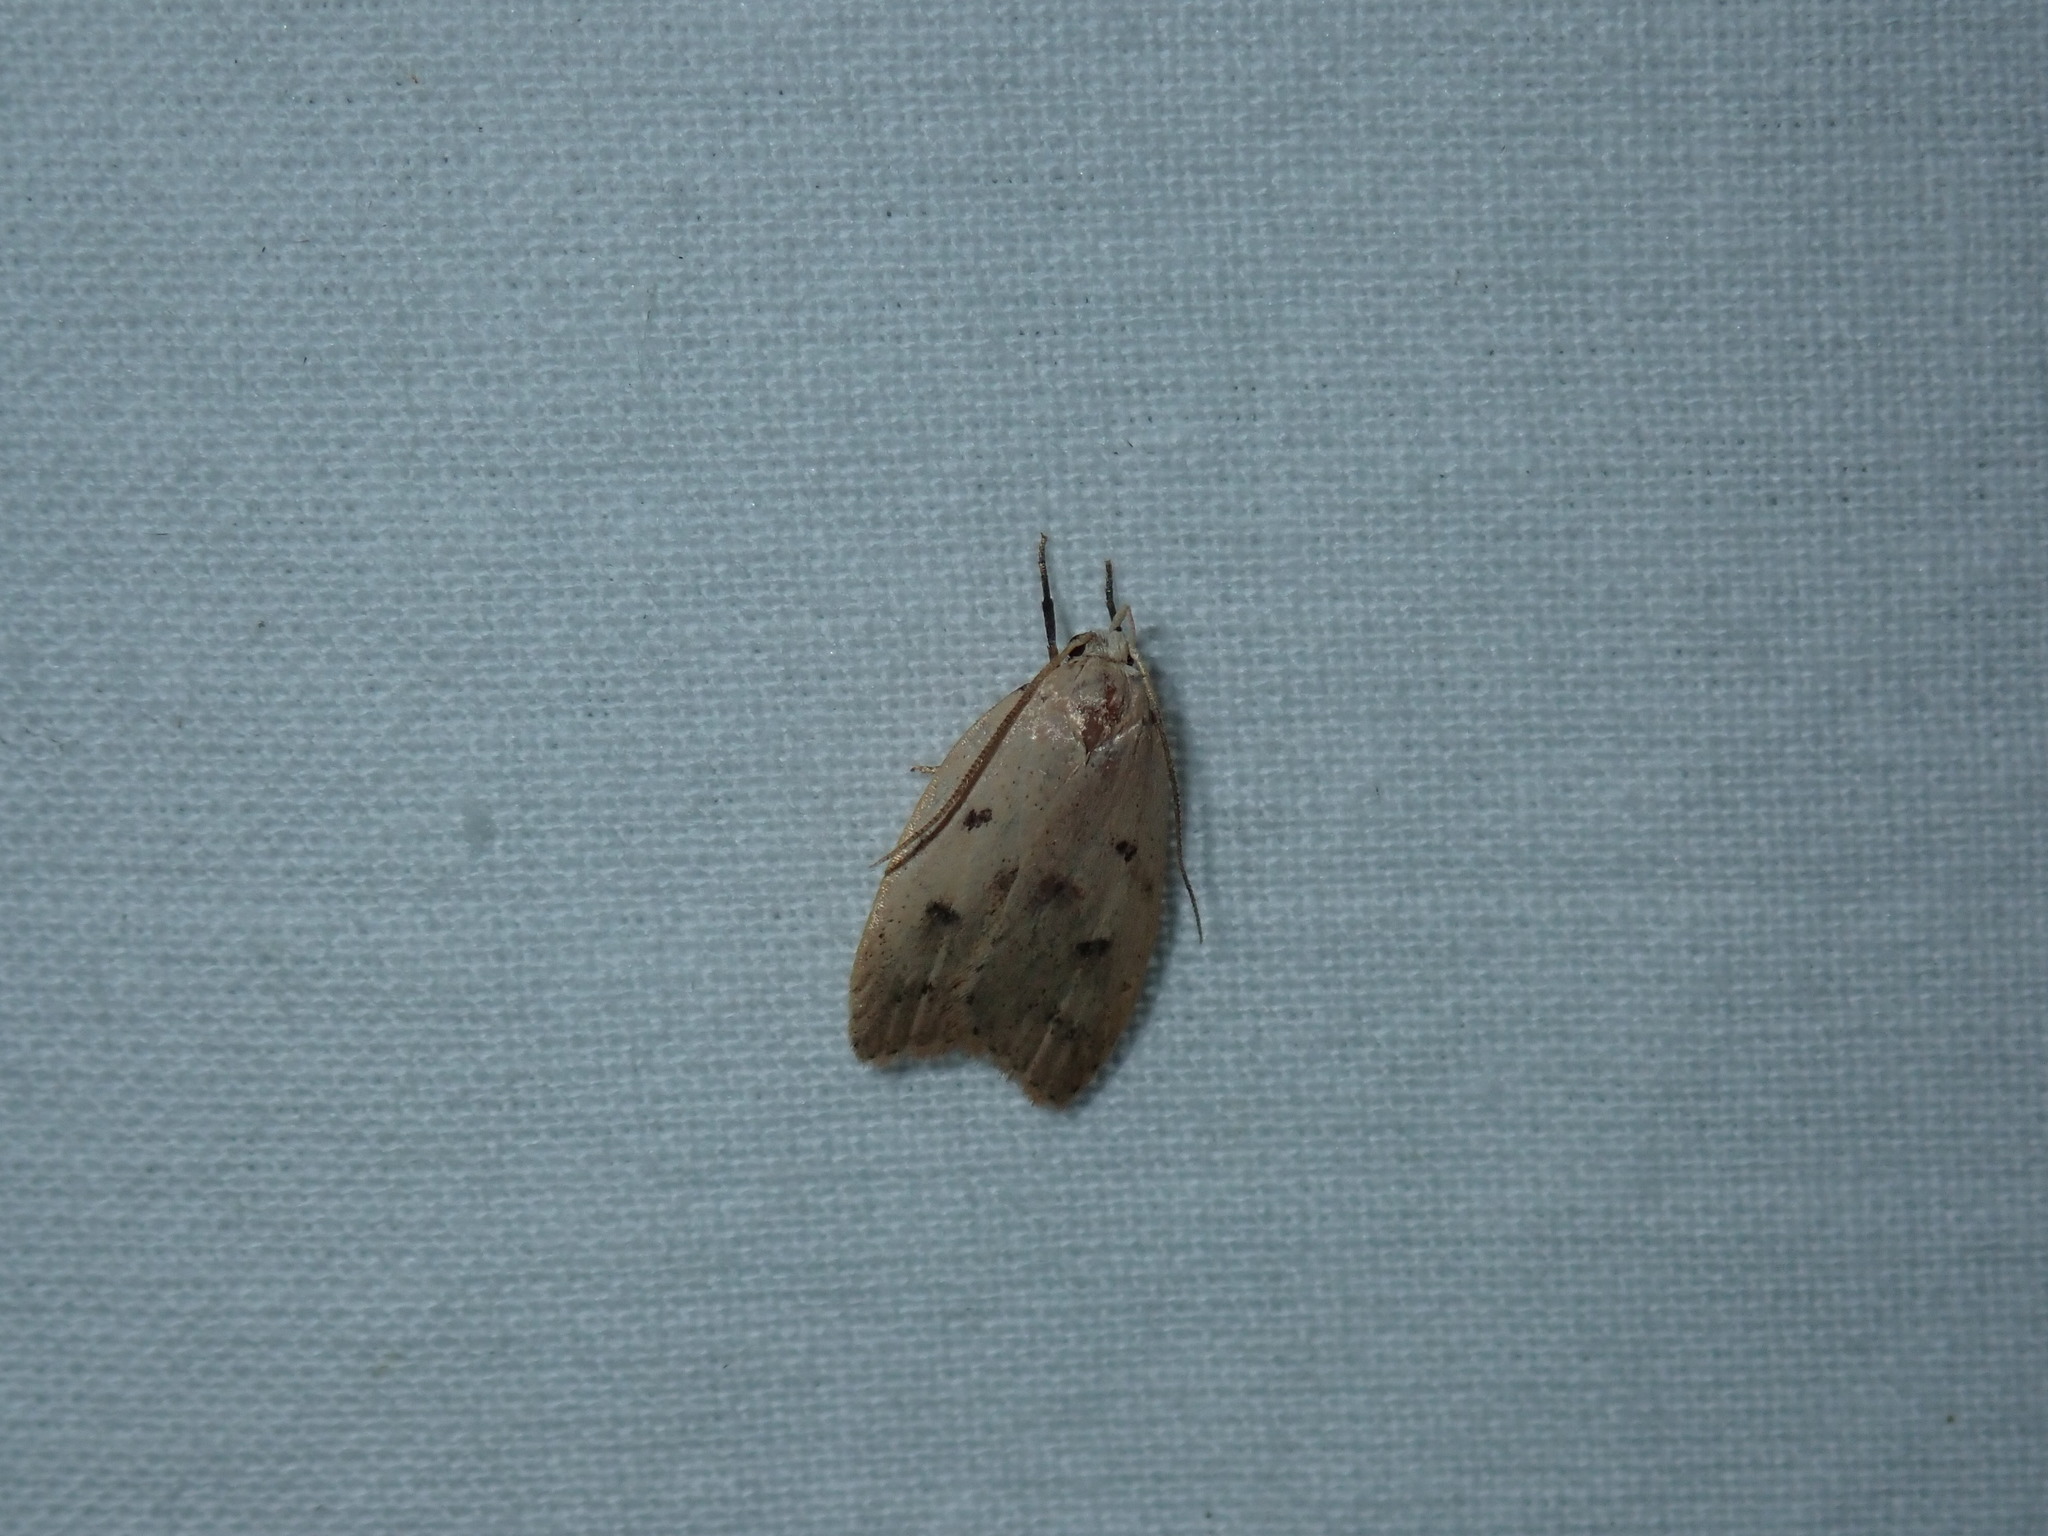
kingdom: Animalia
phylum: Arthropoda
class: Insecta
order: Lepidoptera
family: Peleopodidae
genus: Machimia
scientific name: Machimia tentoriferella
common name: Gold-striped leaftier moth
